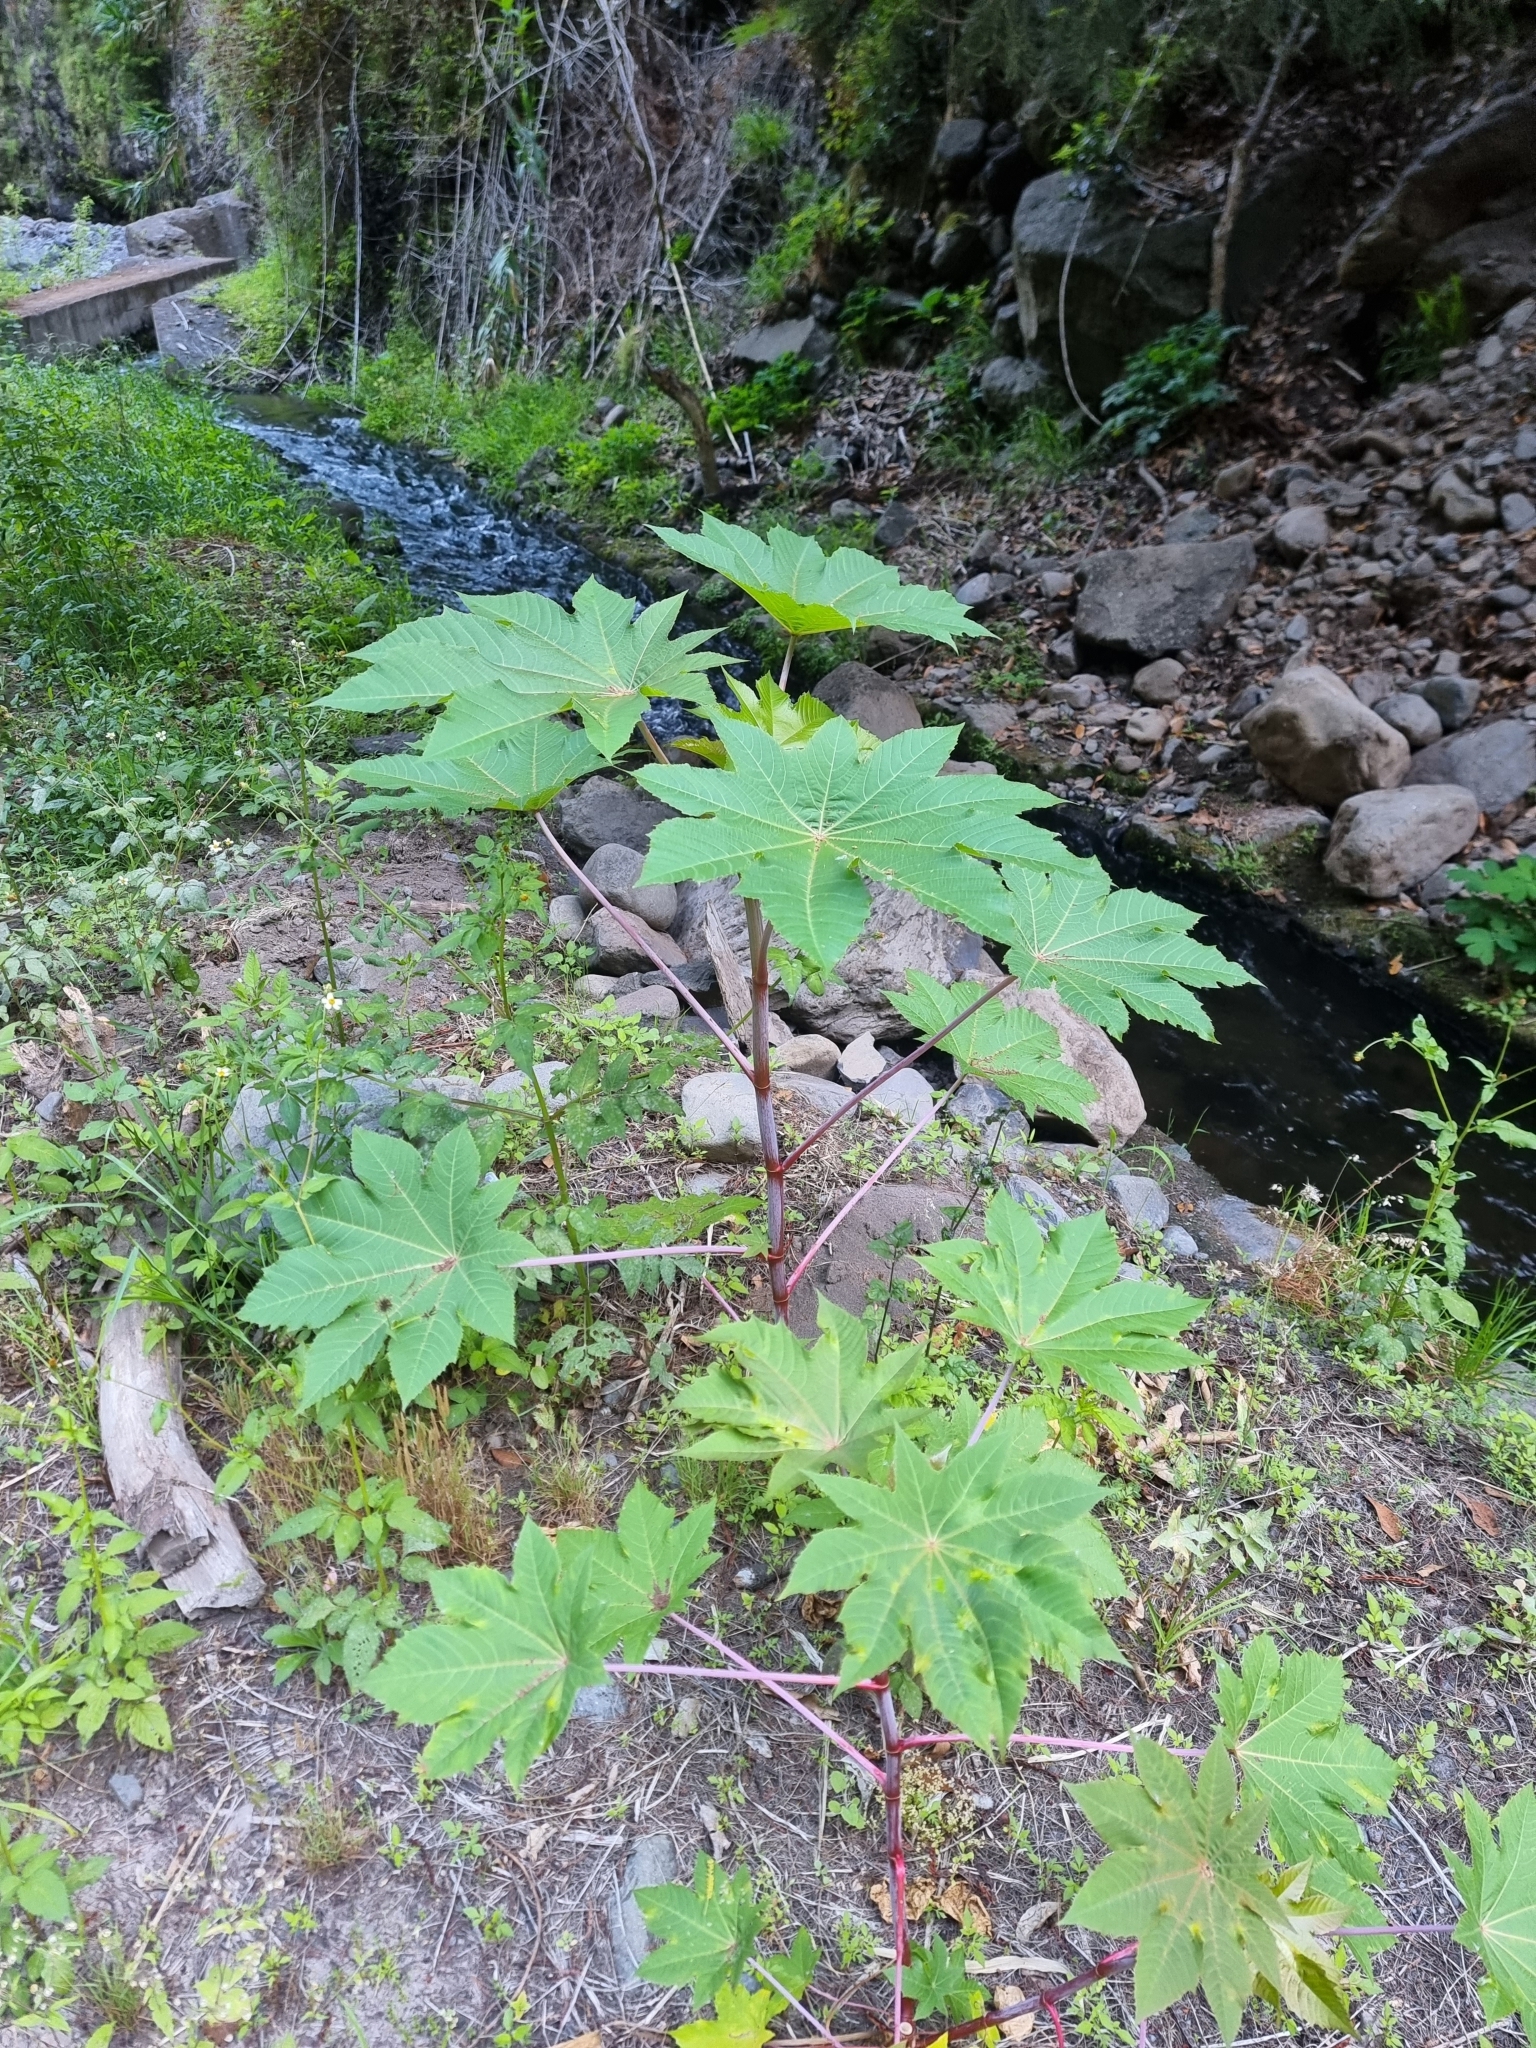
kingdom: Plantae
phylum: Tracheophyta
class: Magnoliopsida
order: Malpighiales
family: Euphorbiaceae
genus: Ricinus
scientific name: Ricinus communis
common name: Castor-oil-plant
